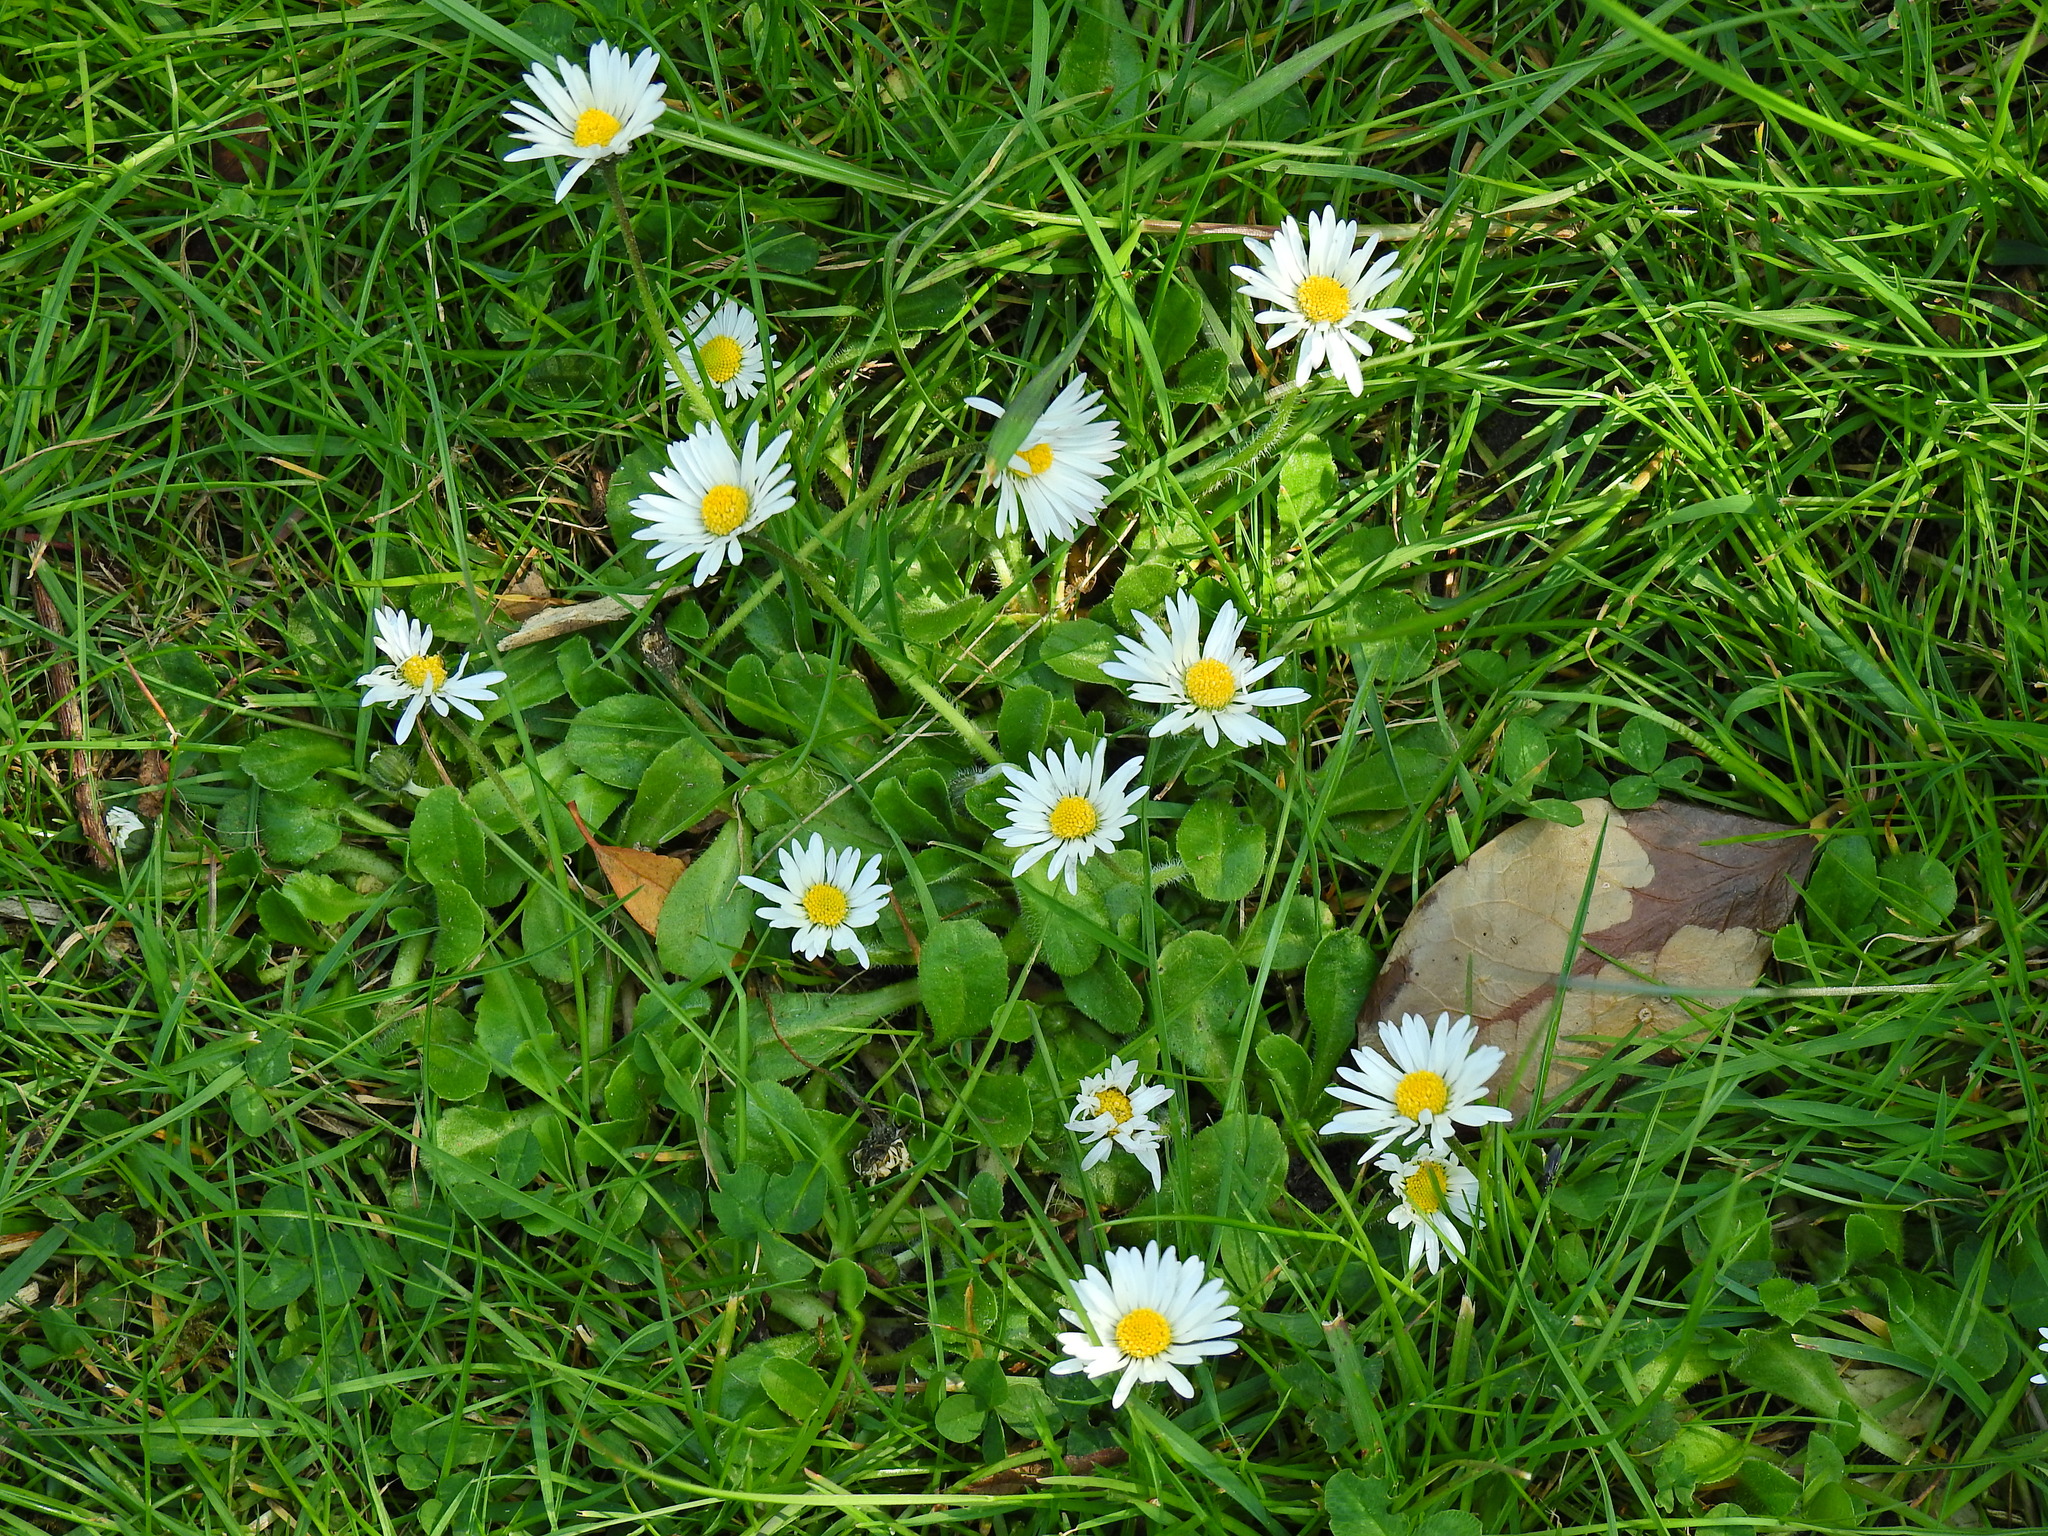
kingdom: Plantae
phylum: Tracheophyta
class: Magnoliopsida
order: Asterales
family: Asteraceae
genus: Bellis
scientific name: Bellis perennis
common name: Lawndaisy
